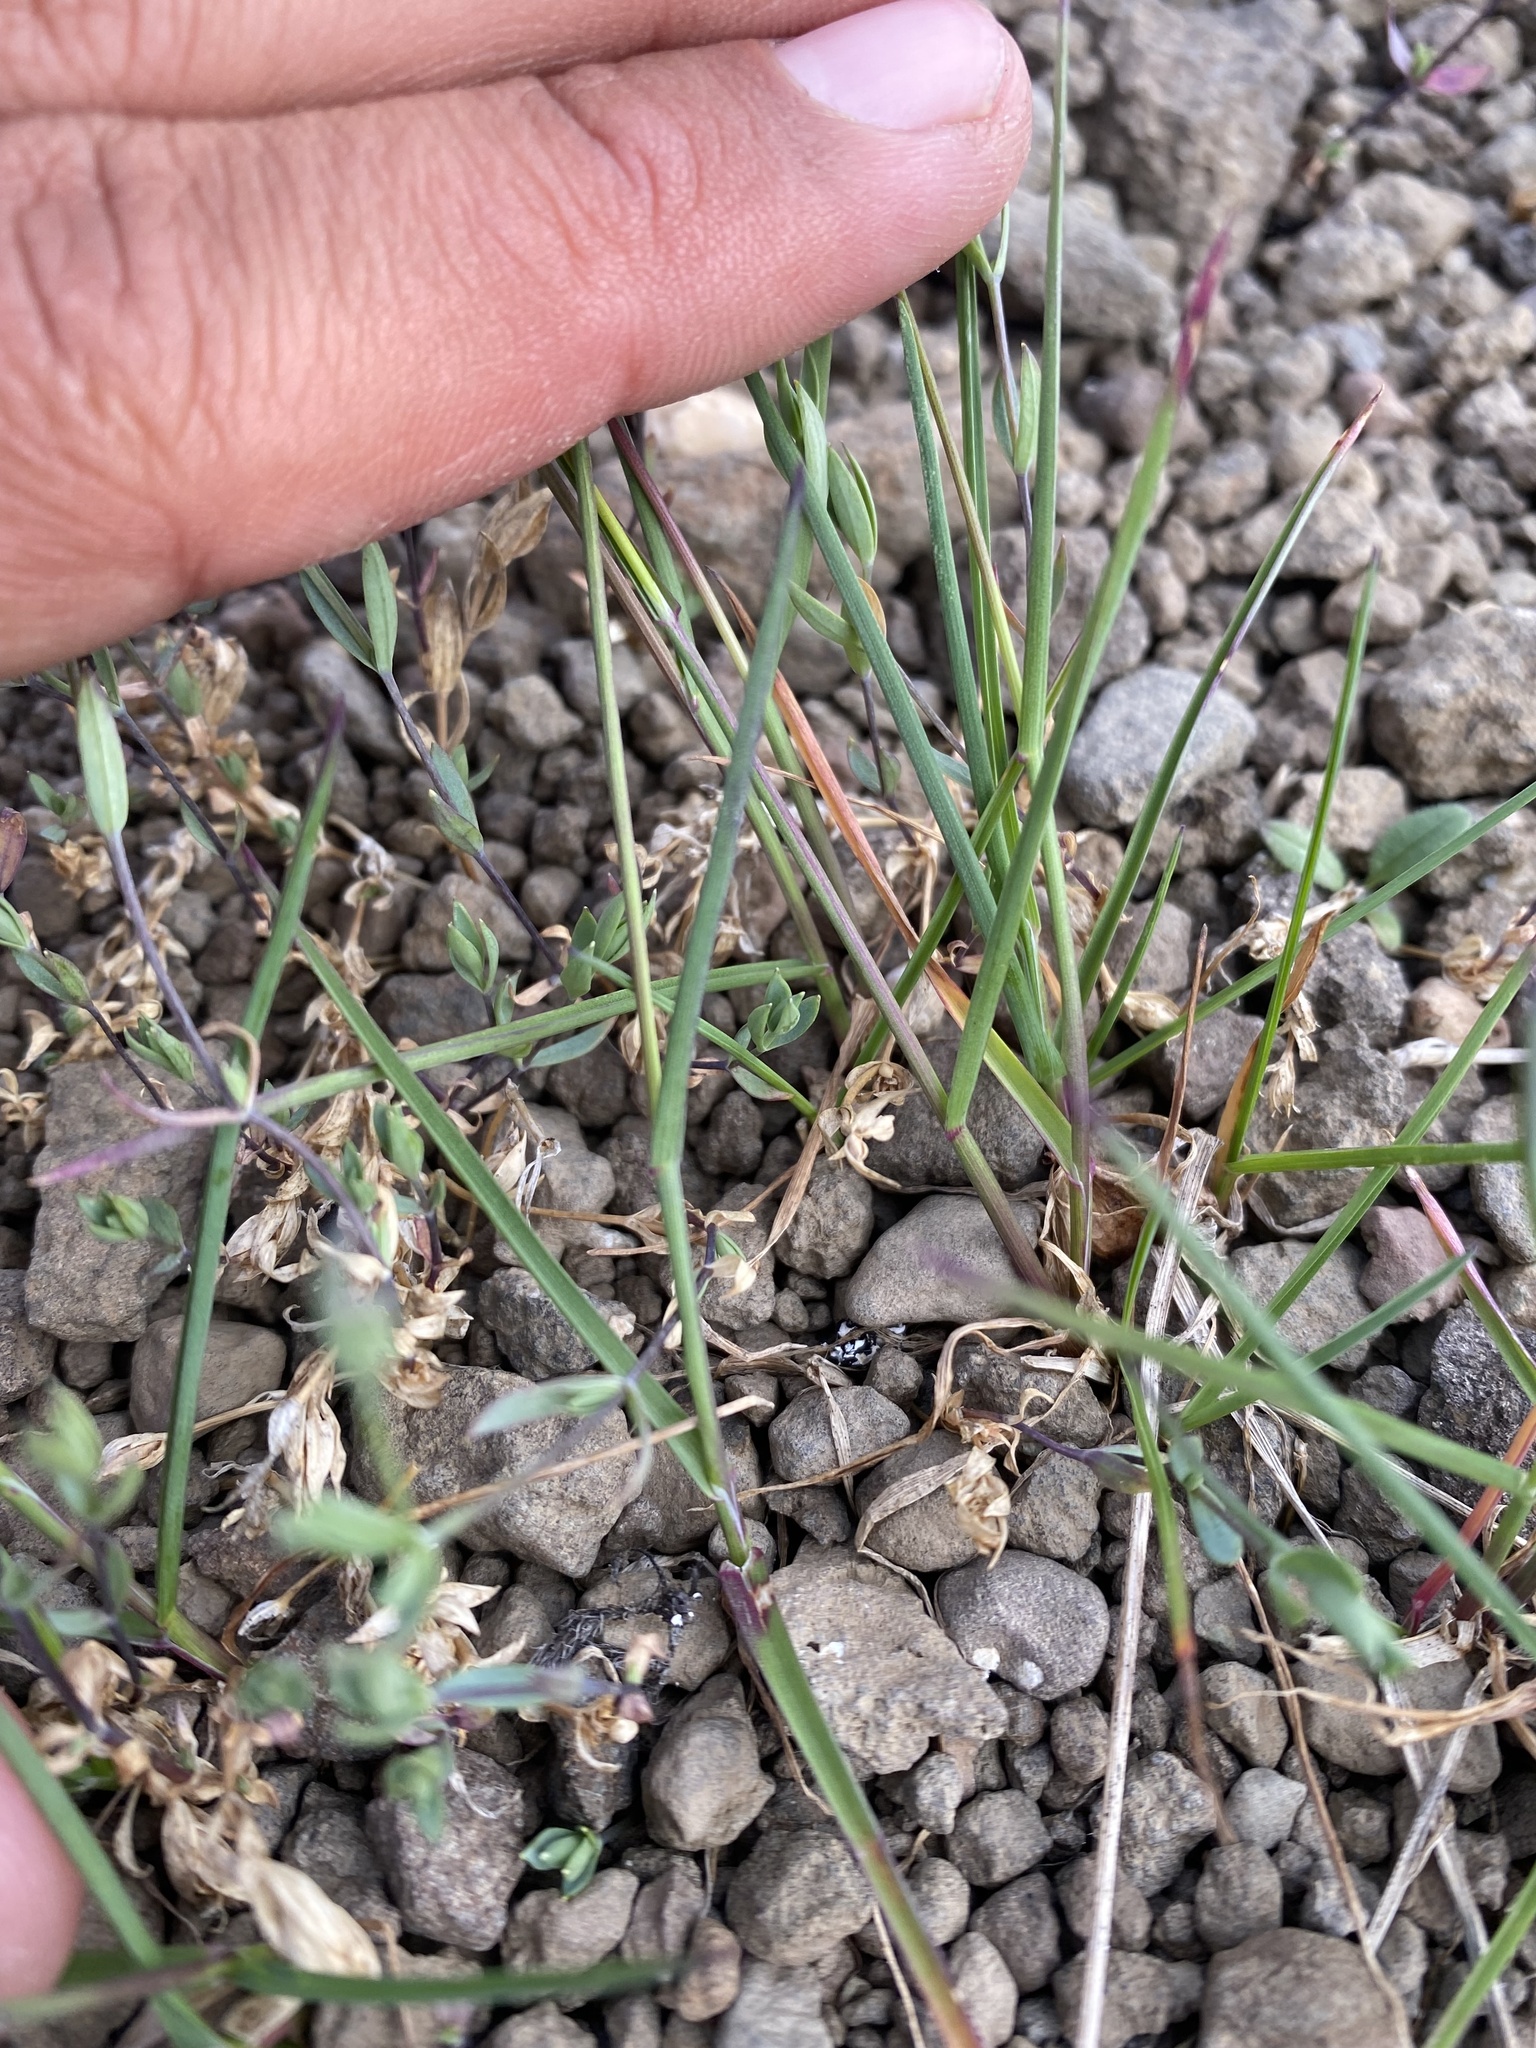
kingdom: Plantae
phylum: Tracheophyta
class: Liliopsida
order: Poales
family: Poaceae
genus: Poa
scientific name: Poa arctica
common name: Arctic bluegrass
